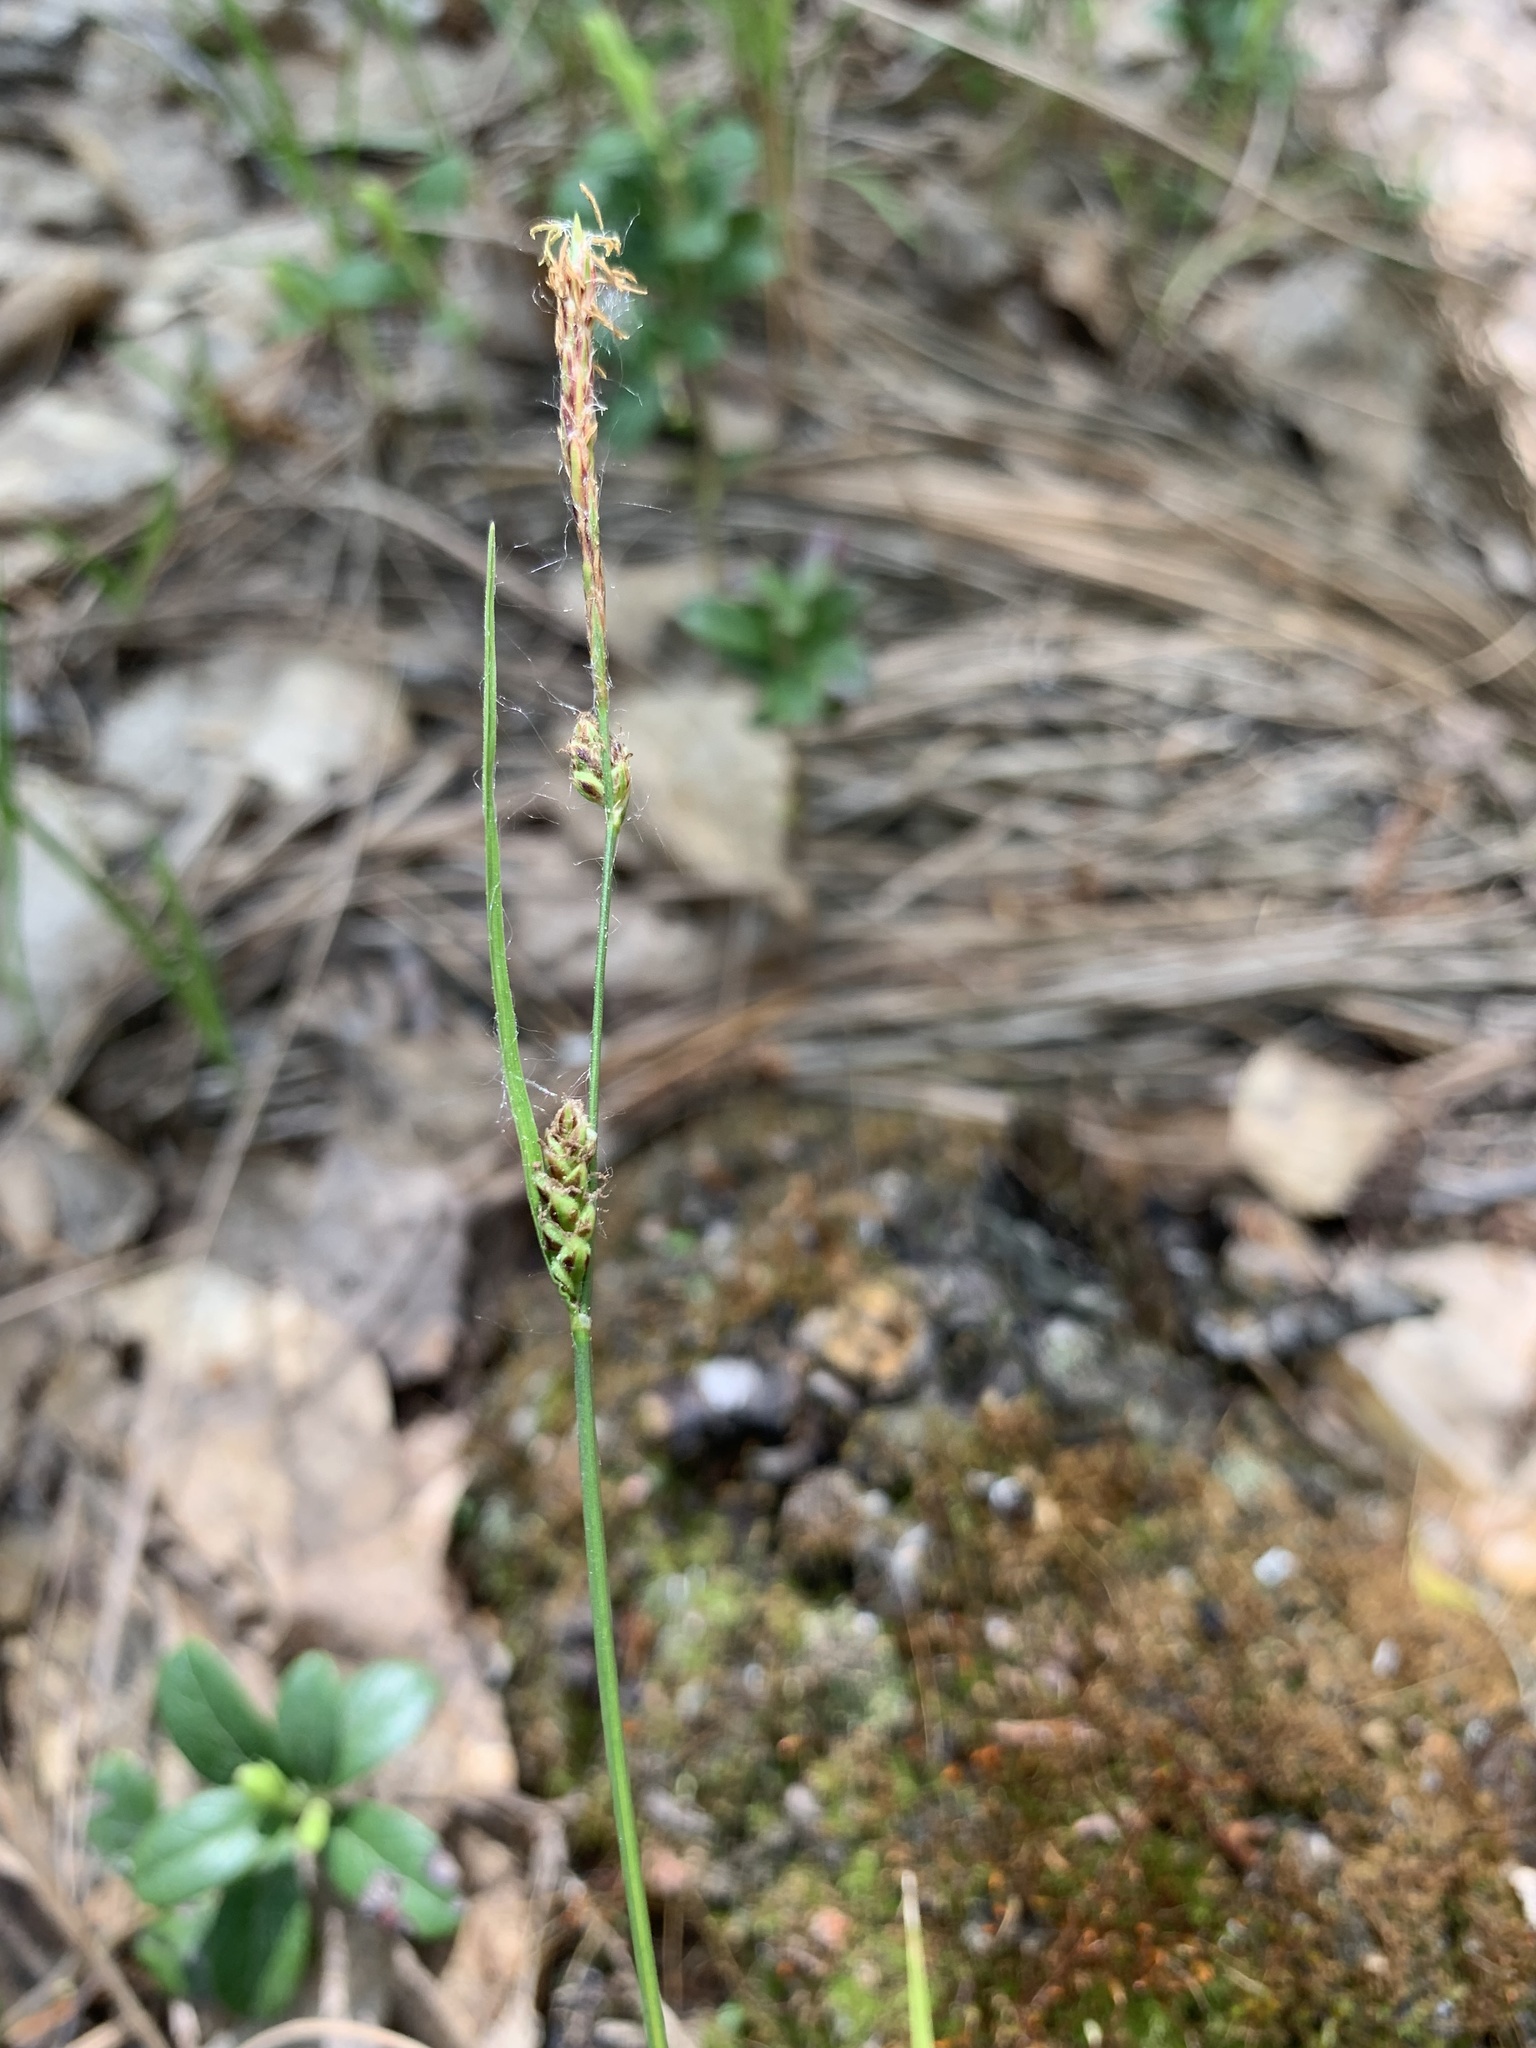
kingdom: Plantae
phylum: Tracheophyta
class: Liliopsida
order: Poales
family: Cyperaceae
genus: Carex
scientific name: Carex globularis
